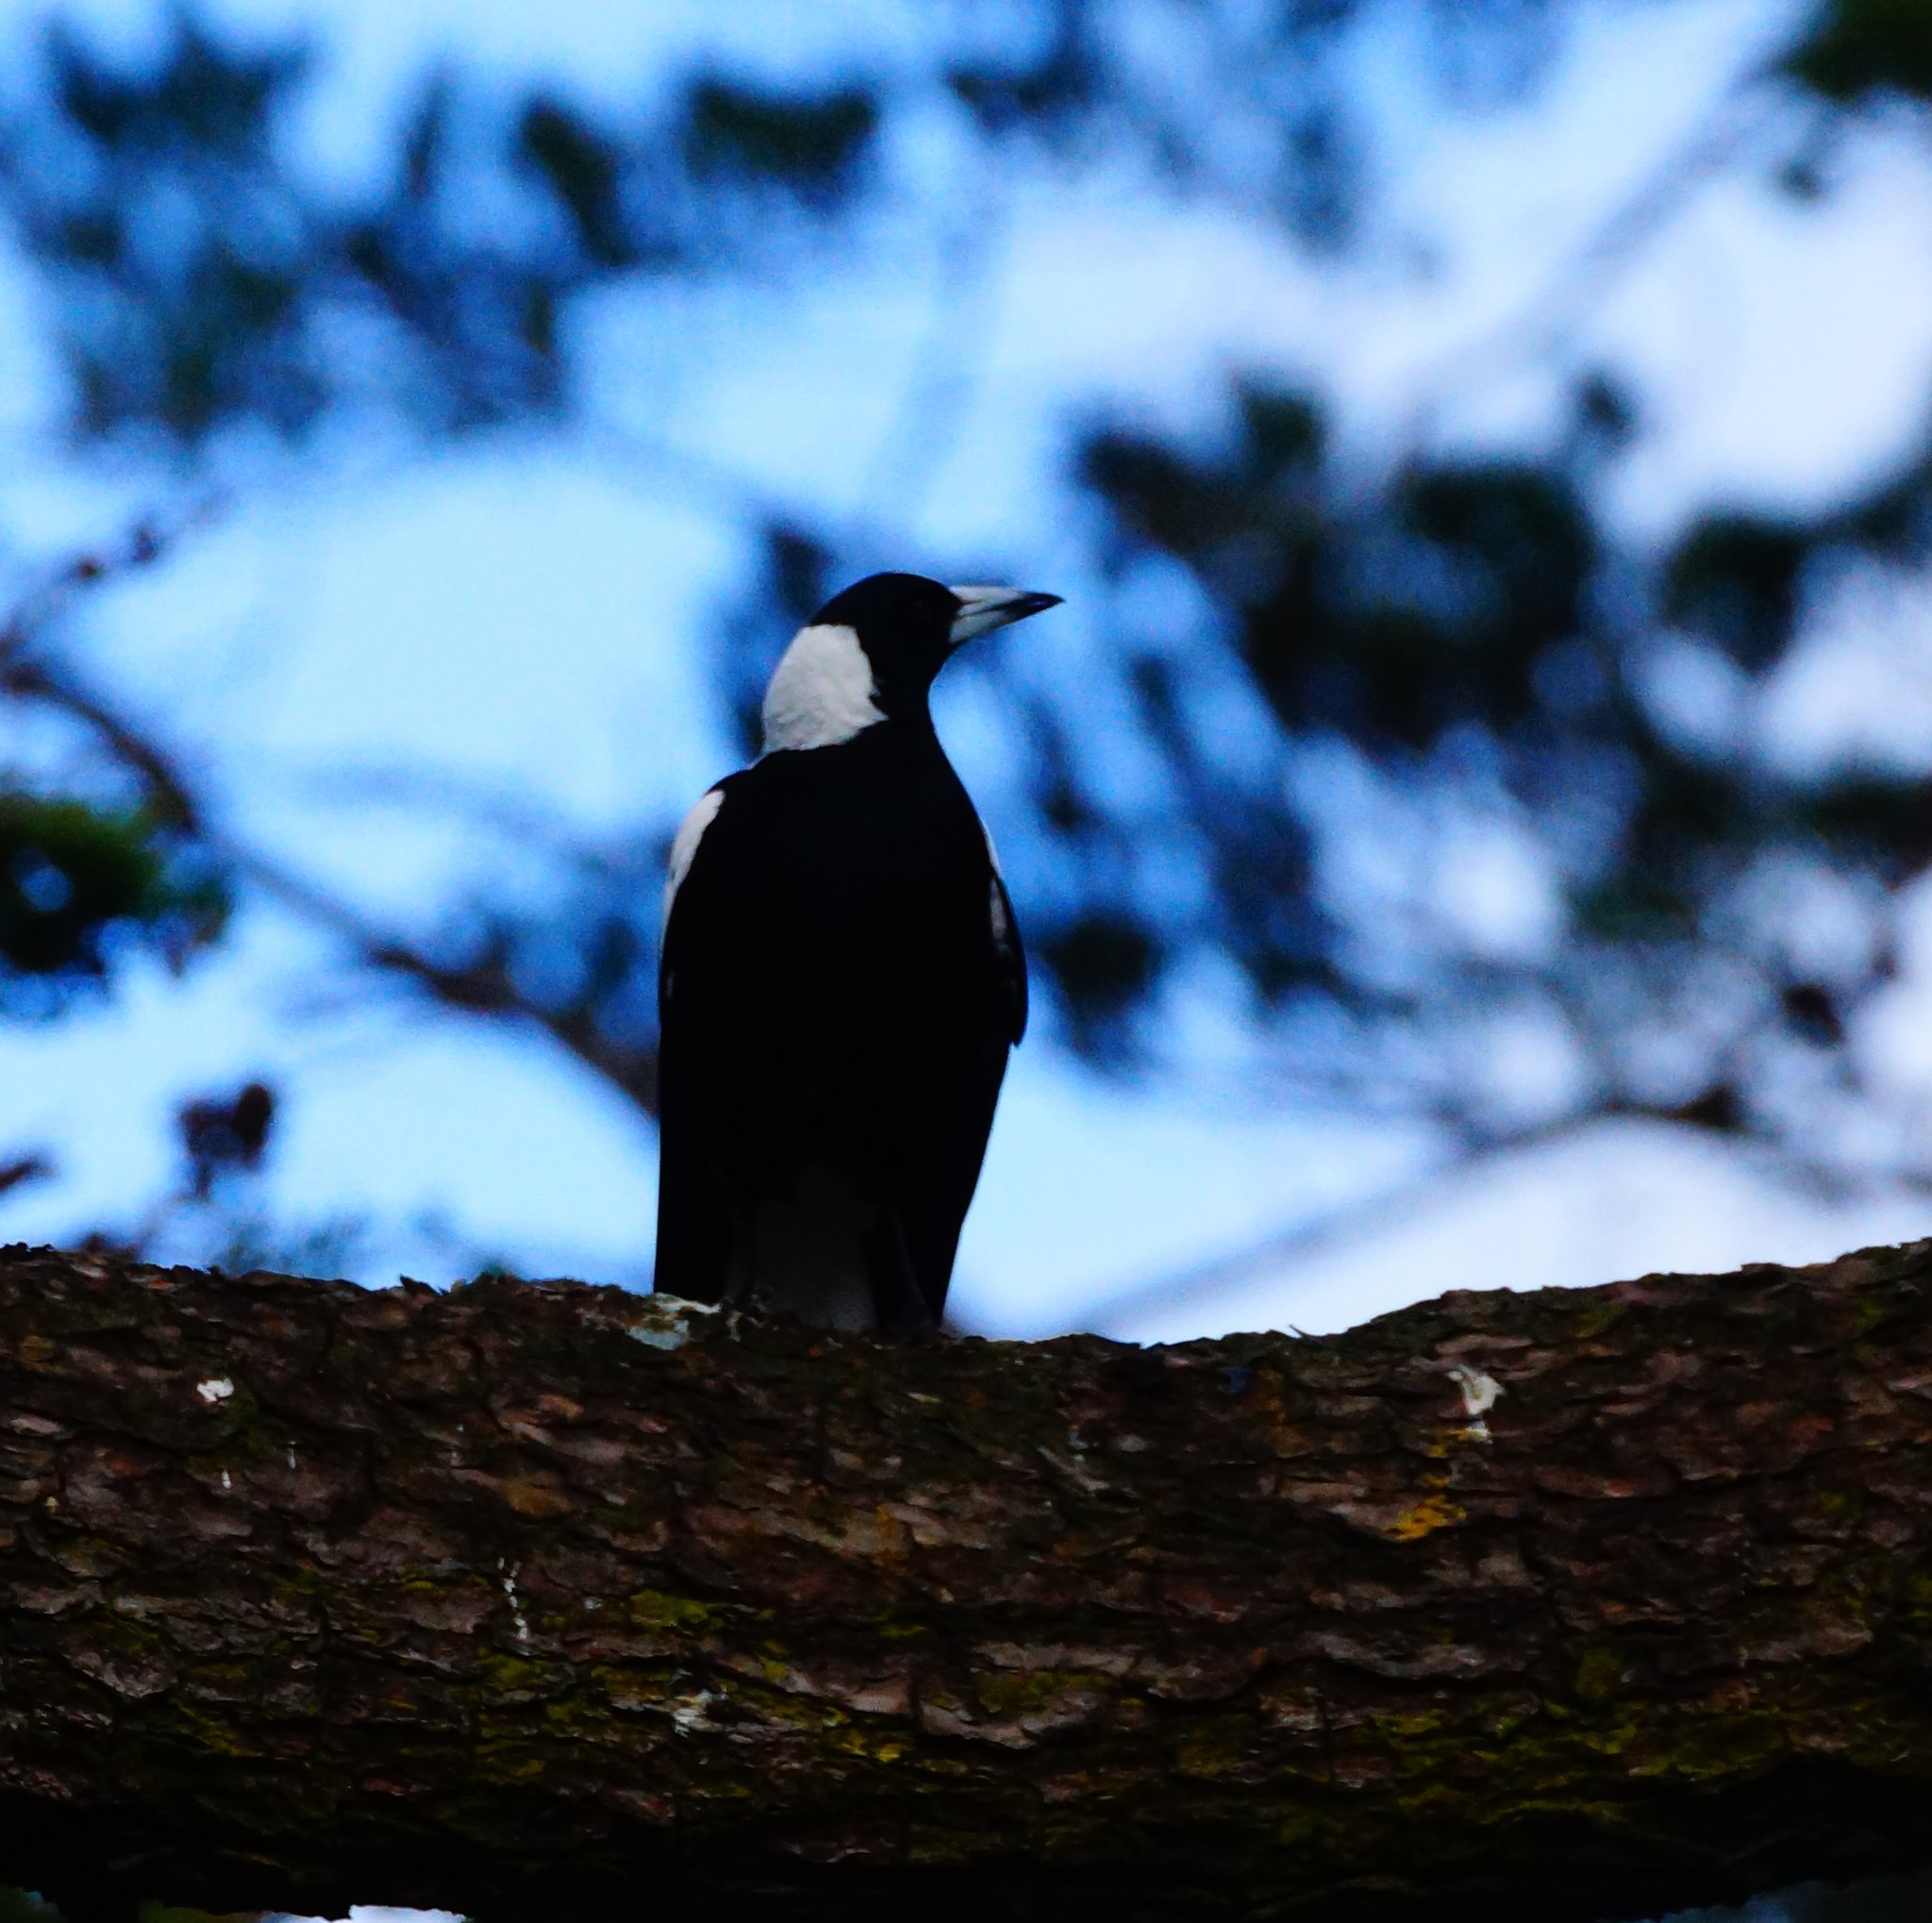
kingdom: Animalia
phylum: Chordata
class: Aves
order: Passeriformes
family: Cracticidae
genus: Gymnorhina
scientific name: Gymnorhina tibicen
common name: Australian magpie
